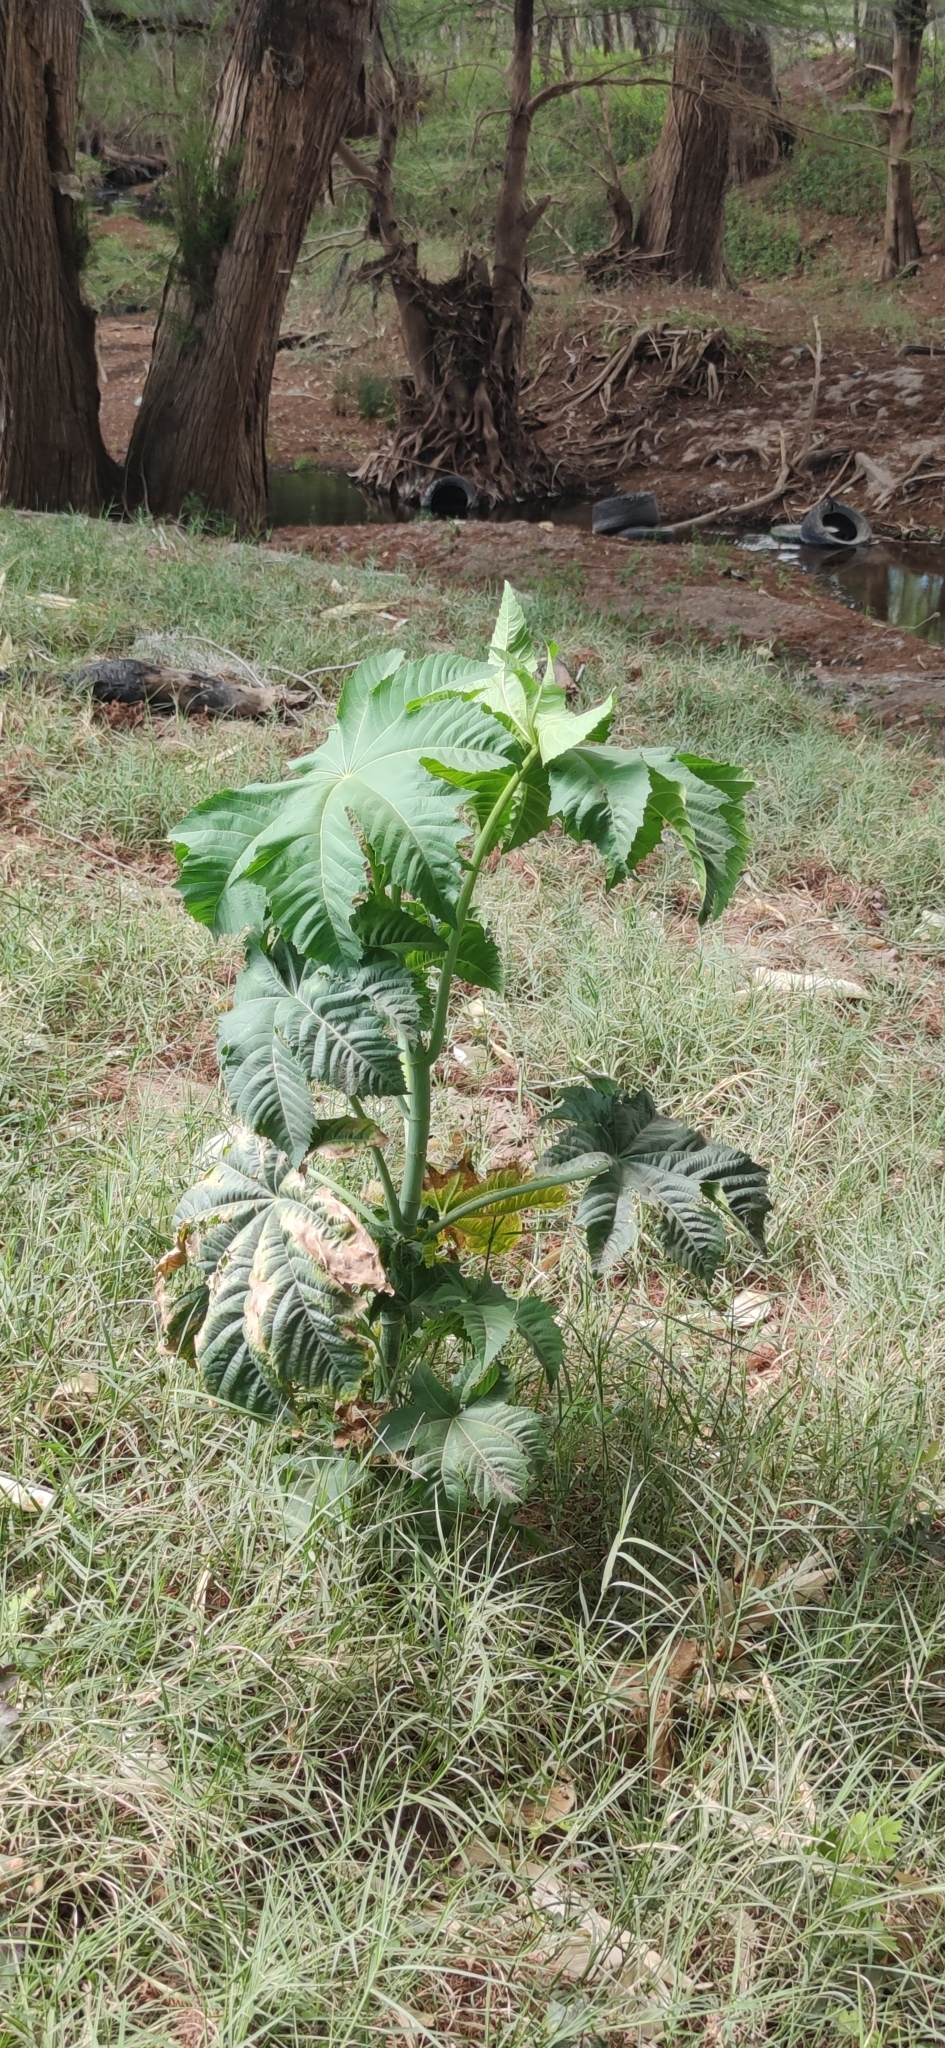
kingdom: Plantae
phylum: Tracheophyta
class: Magnoliopsida
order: Malpighiales
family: Euphorbiaceae
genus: Ricinus
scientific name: Ricinus communis
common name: Castor-oil-plant
